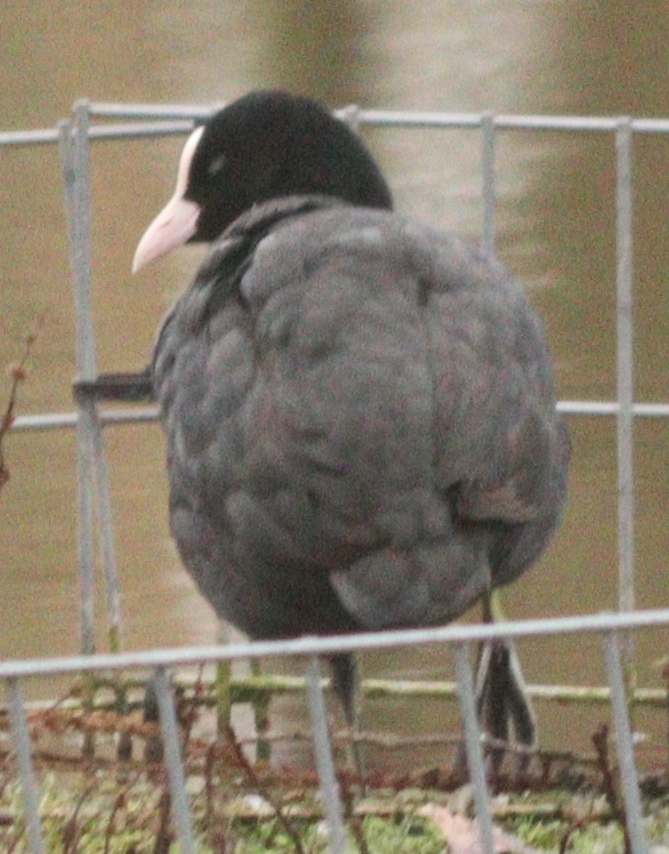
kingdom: Animalia
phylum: Chordata
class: Aves
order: Gruiformes
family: Rallidae
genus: Fulica
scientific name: Fulica atra
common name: Eurasian coot
